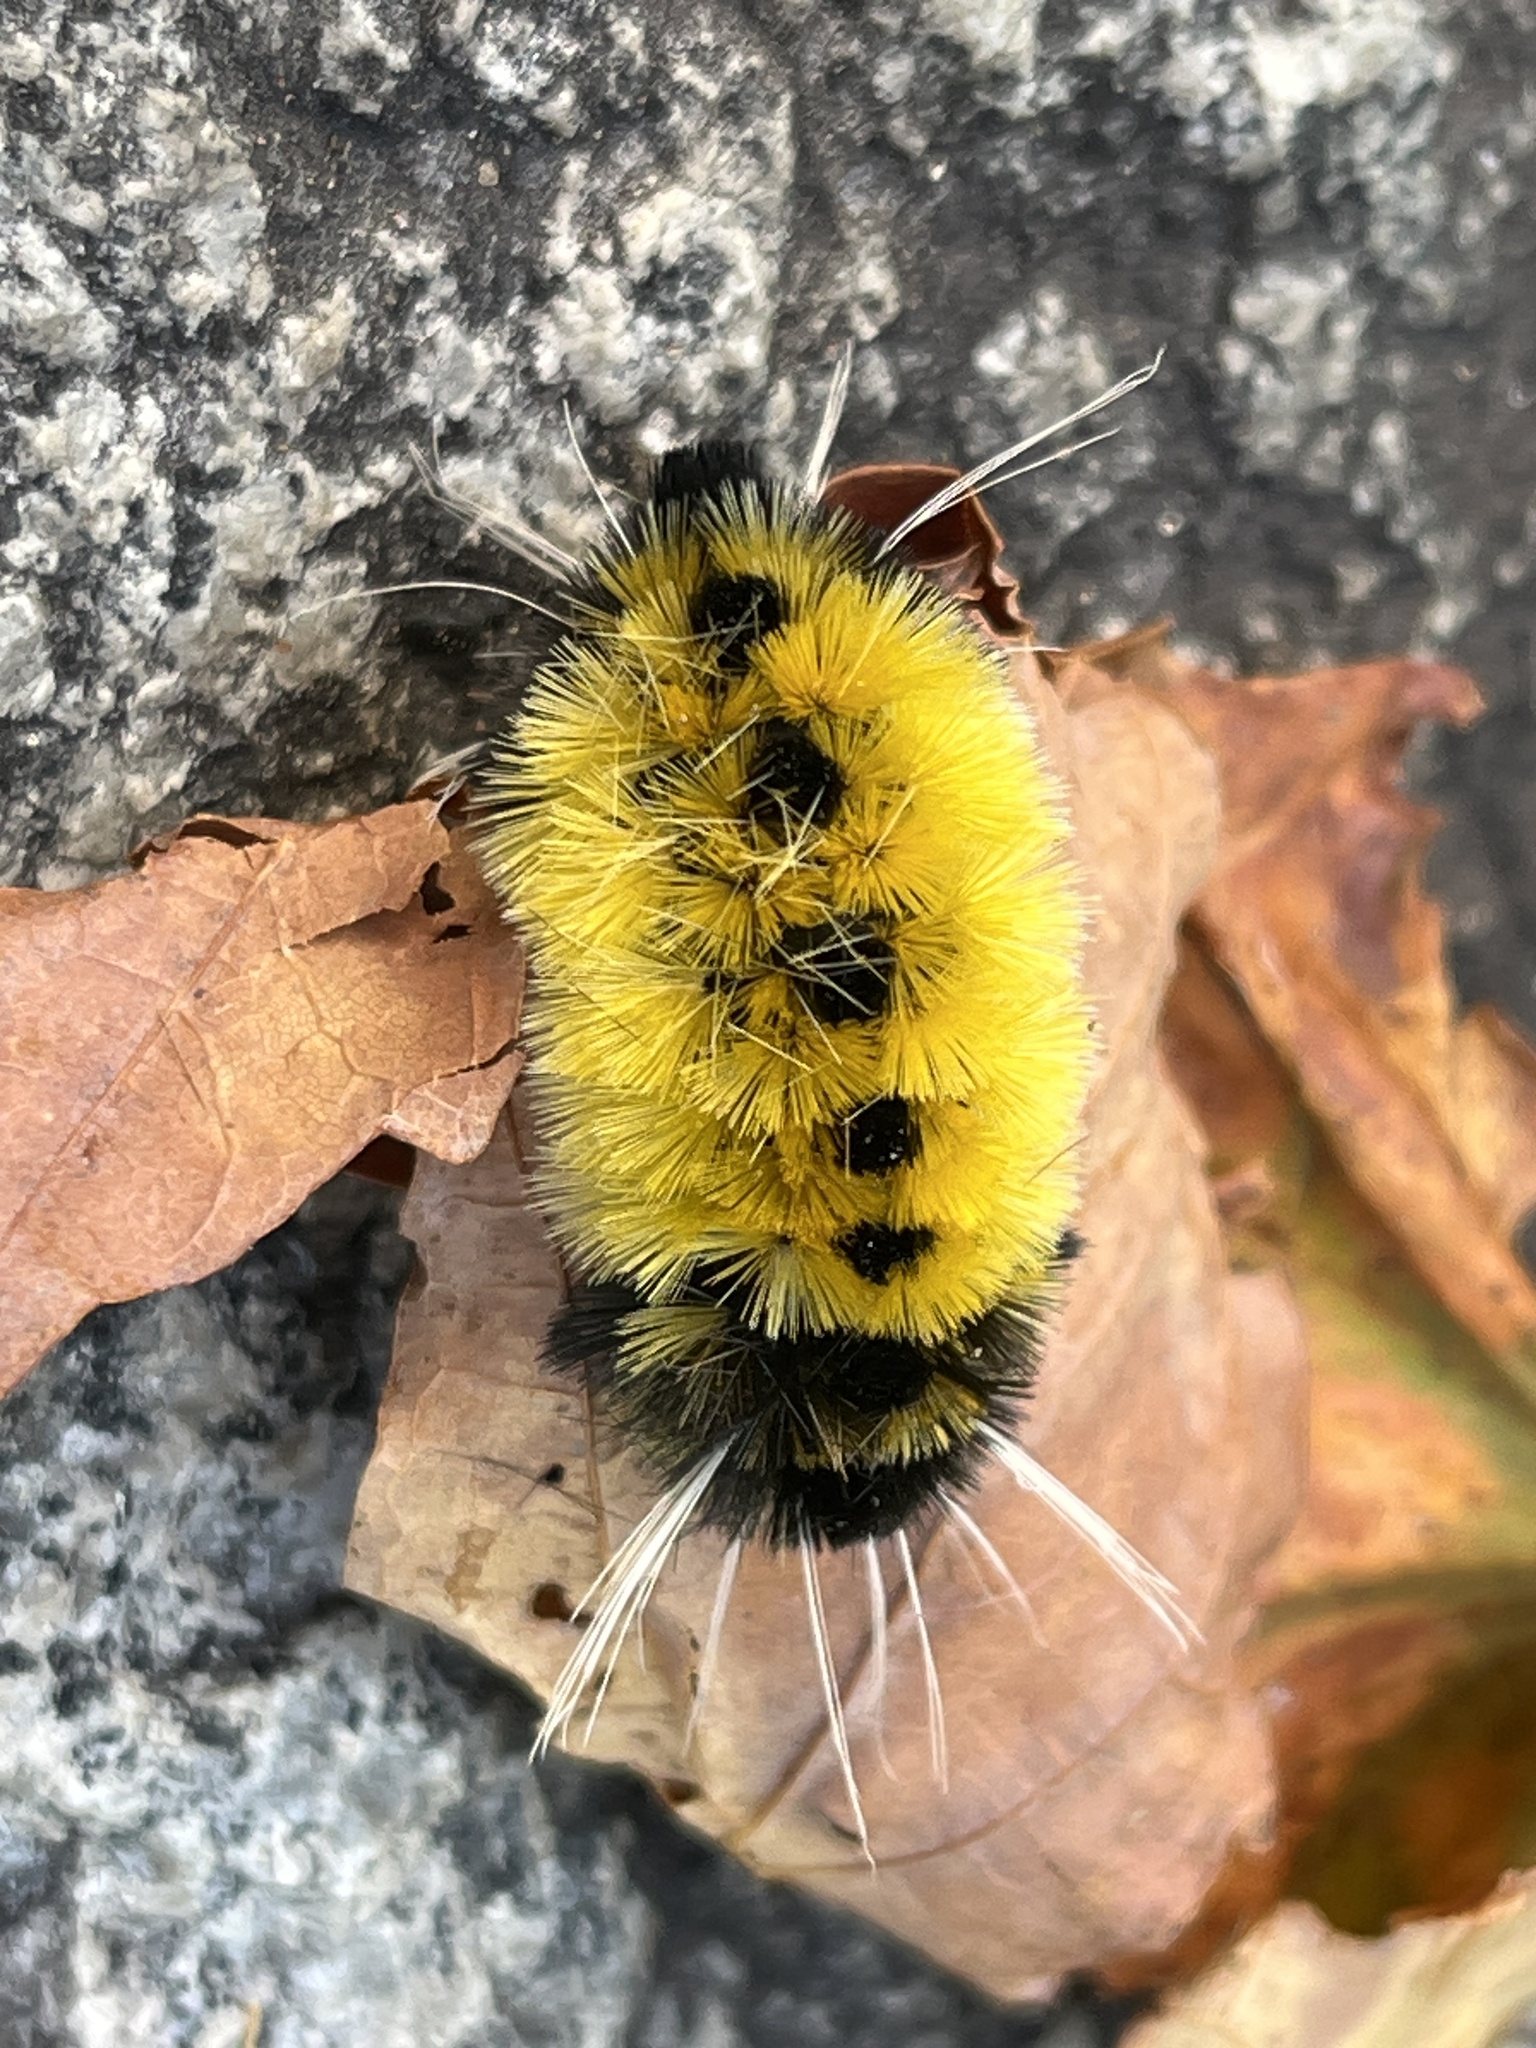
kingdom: Animalia
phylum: Arthropoda
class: Insecta
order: Lepidoptera
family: Erebidae
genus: Lophocampa
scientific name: Lophocampa maculata
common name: Spotted tussock moth
